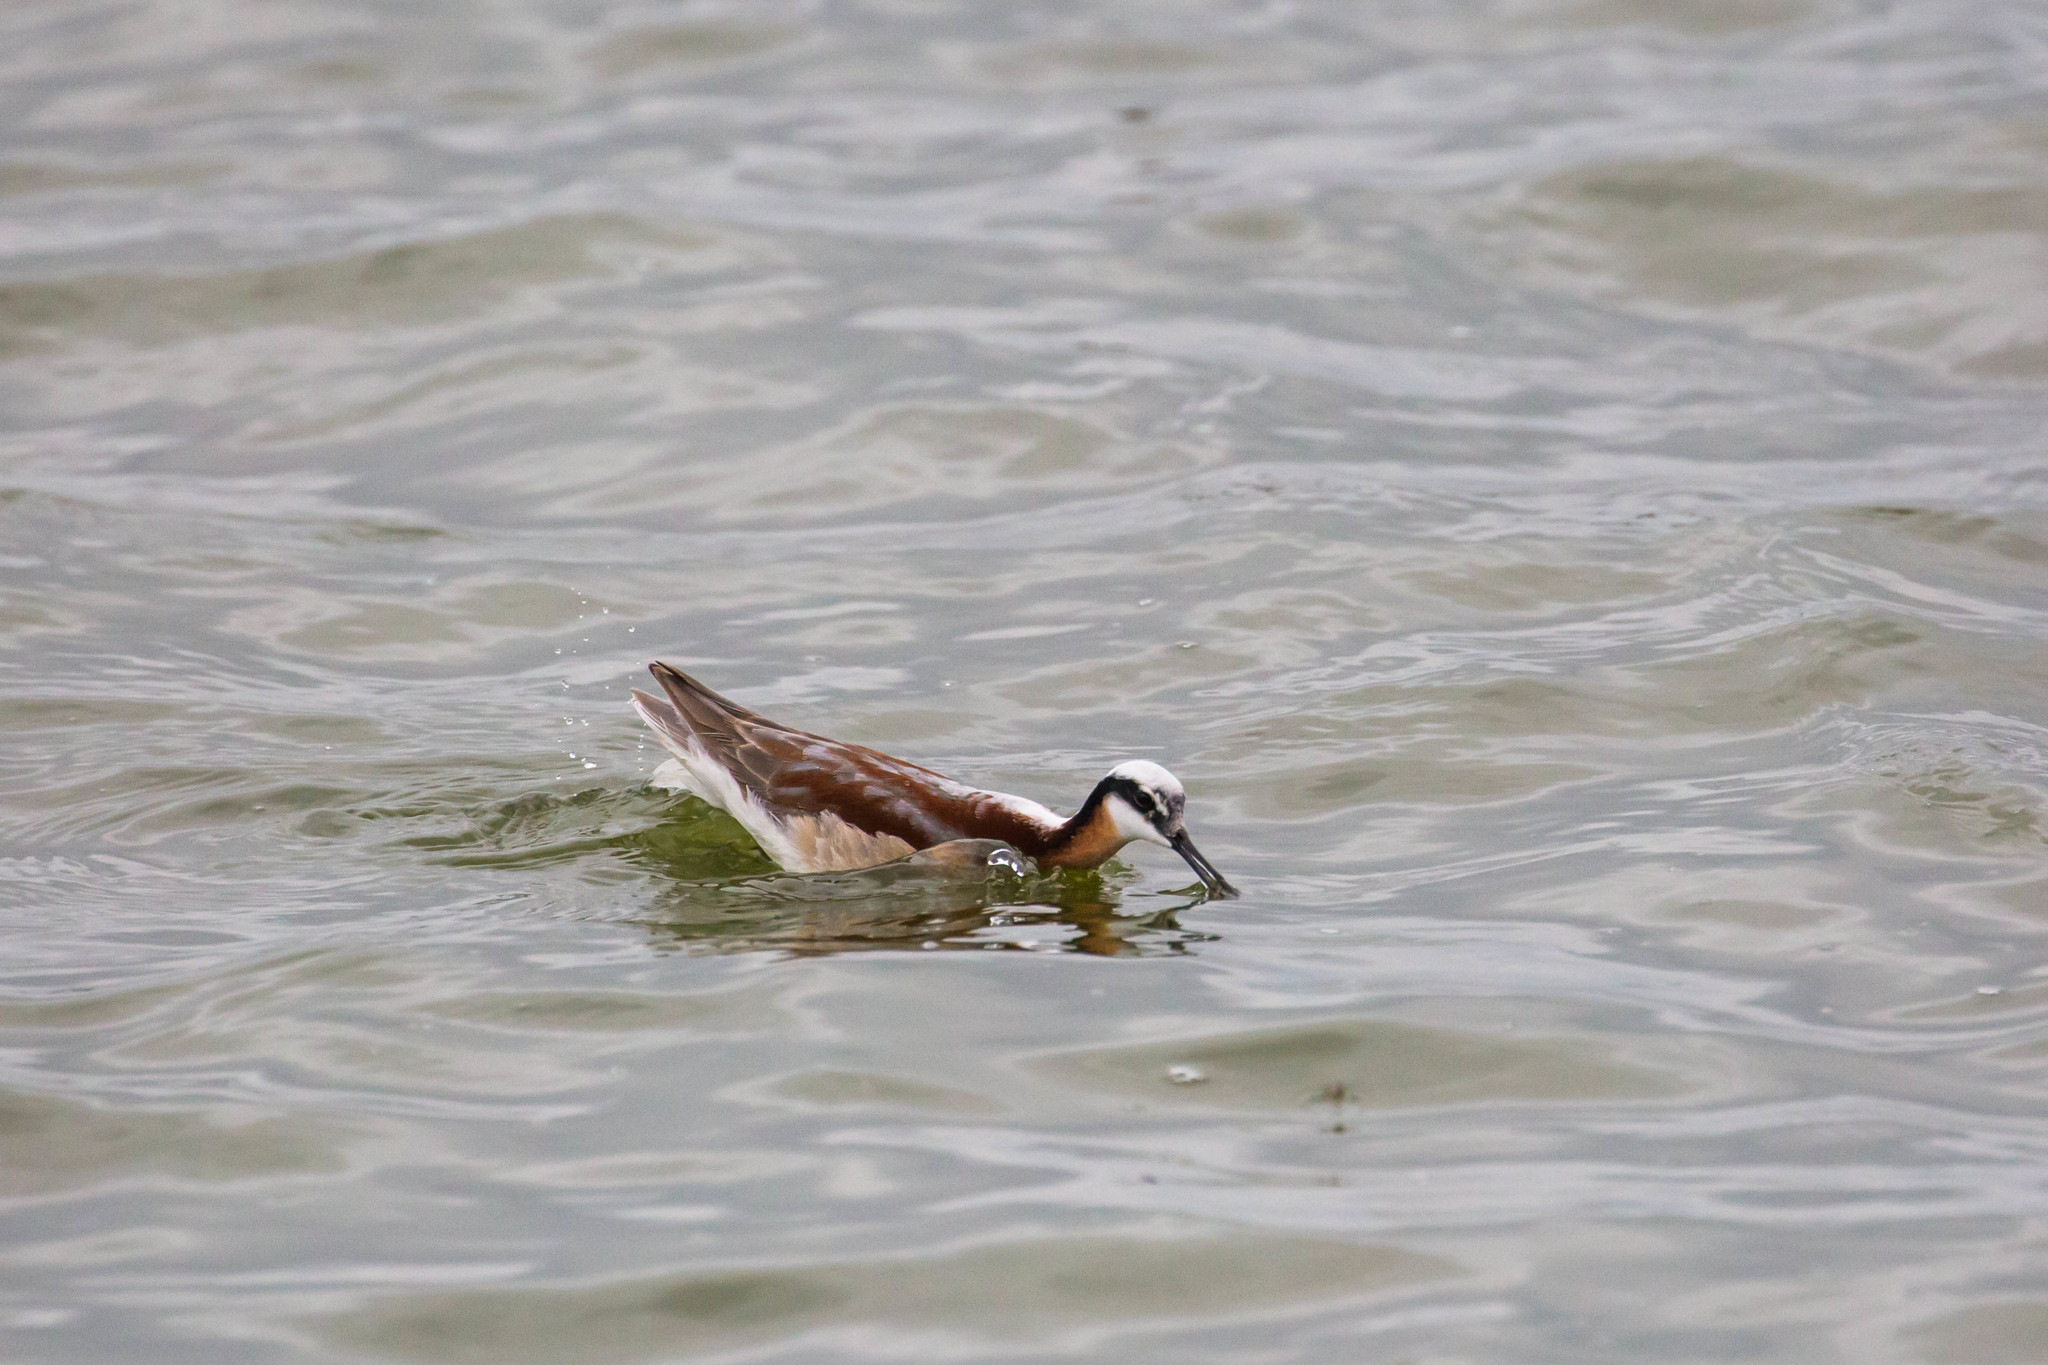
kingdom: Animalia
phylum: Chordata
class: Aves
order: Charadriiformes
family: Scolopacidae
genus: Phalaropus
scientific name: Phalaropus tricolor
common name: Wilson's phalarope
